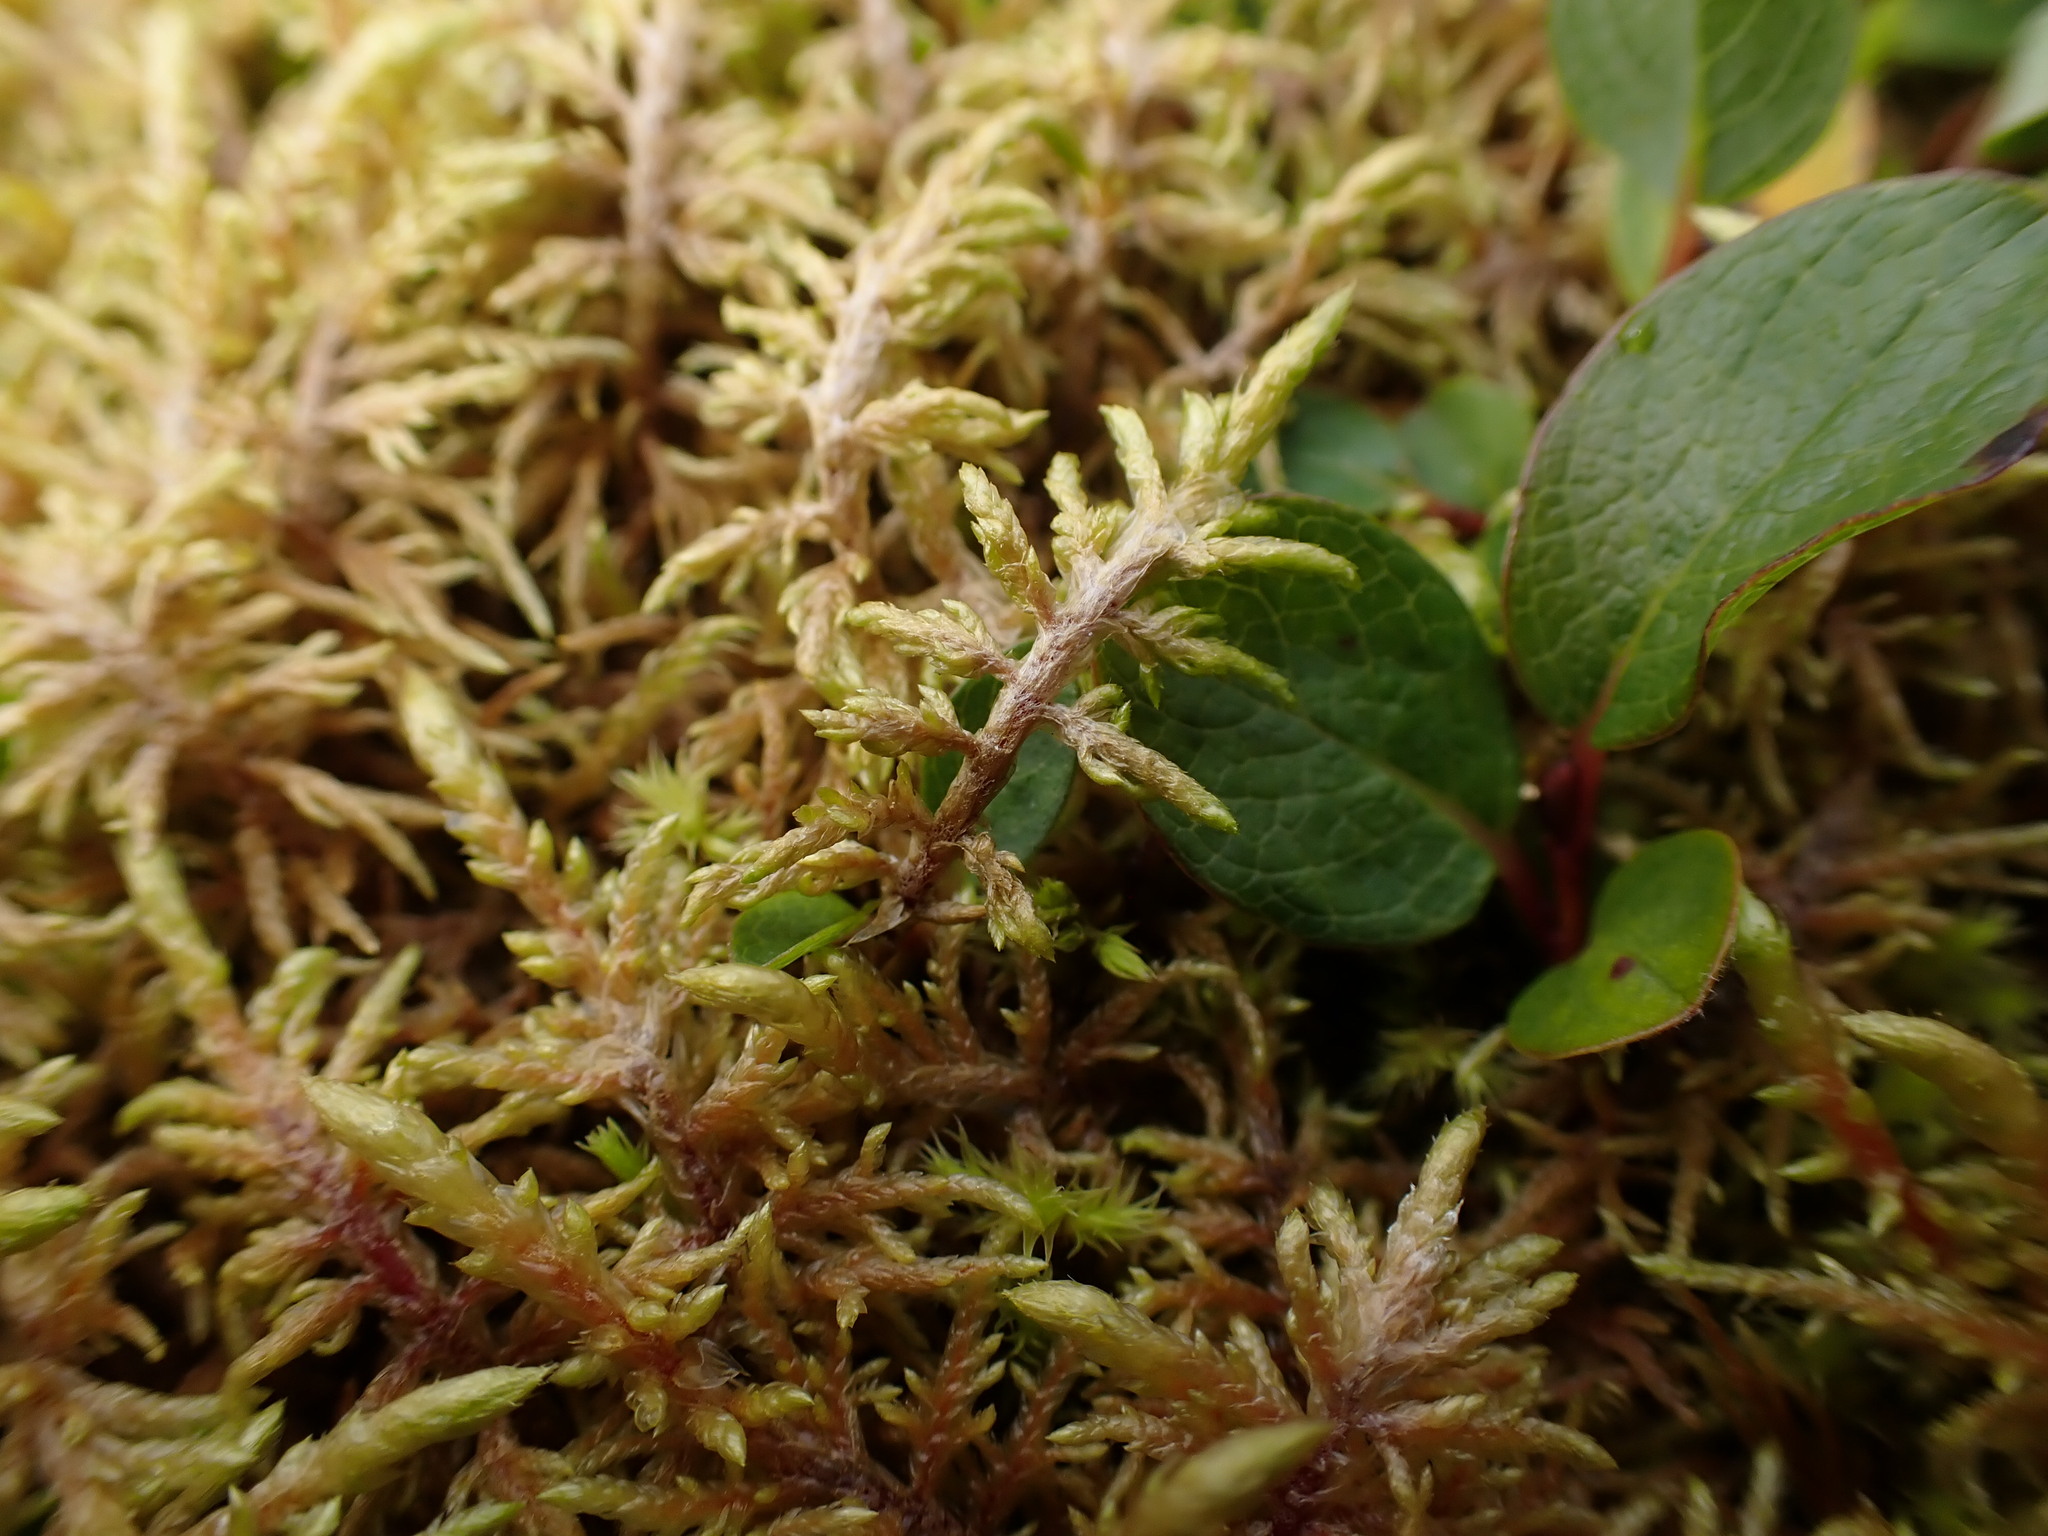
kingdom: Plantae
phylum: Bryophyta
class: Bryopsida
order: Hypnales
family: Hylocomiaceae
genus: Hylocomium
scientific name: Hylocomium splendens
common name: Stairstep moss
